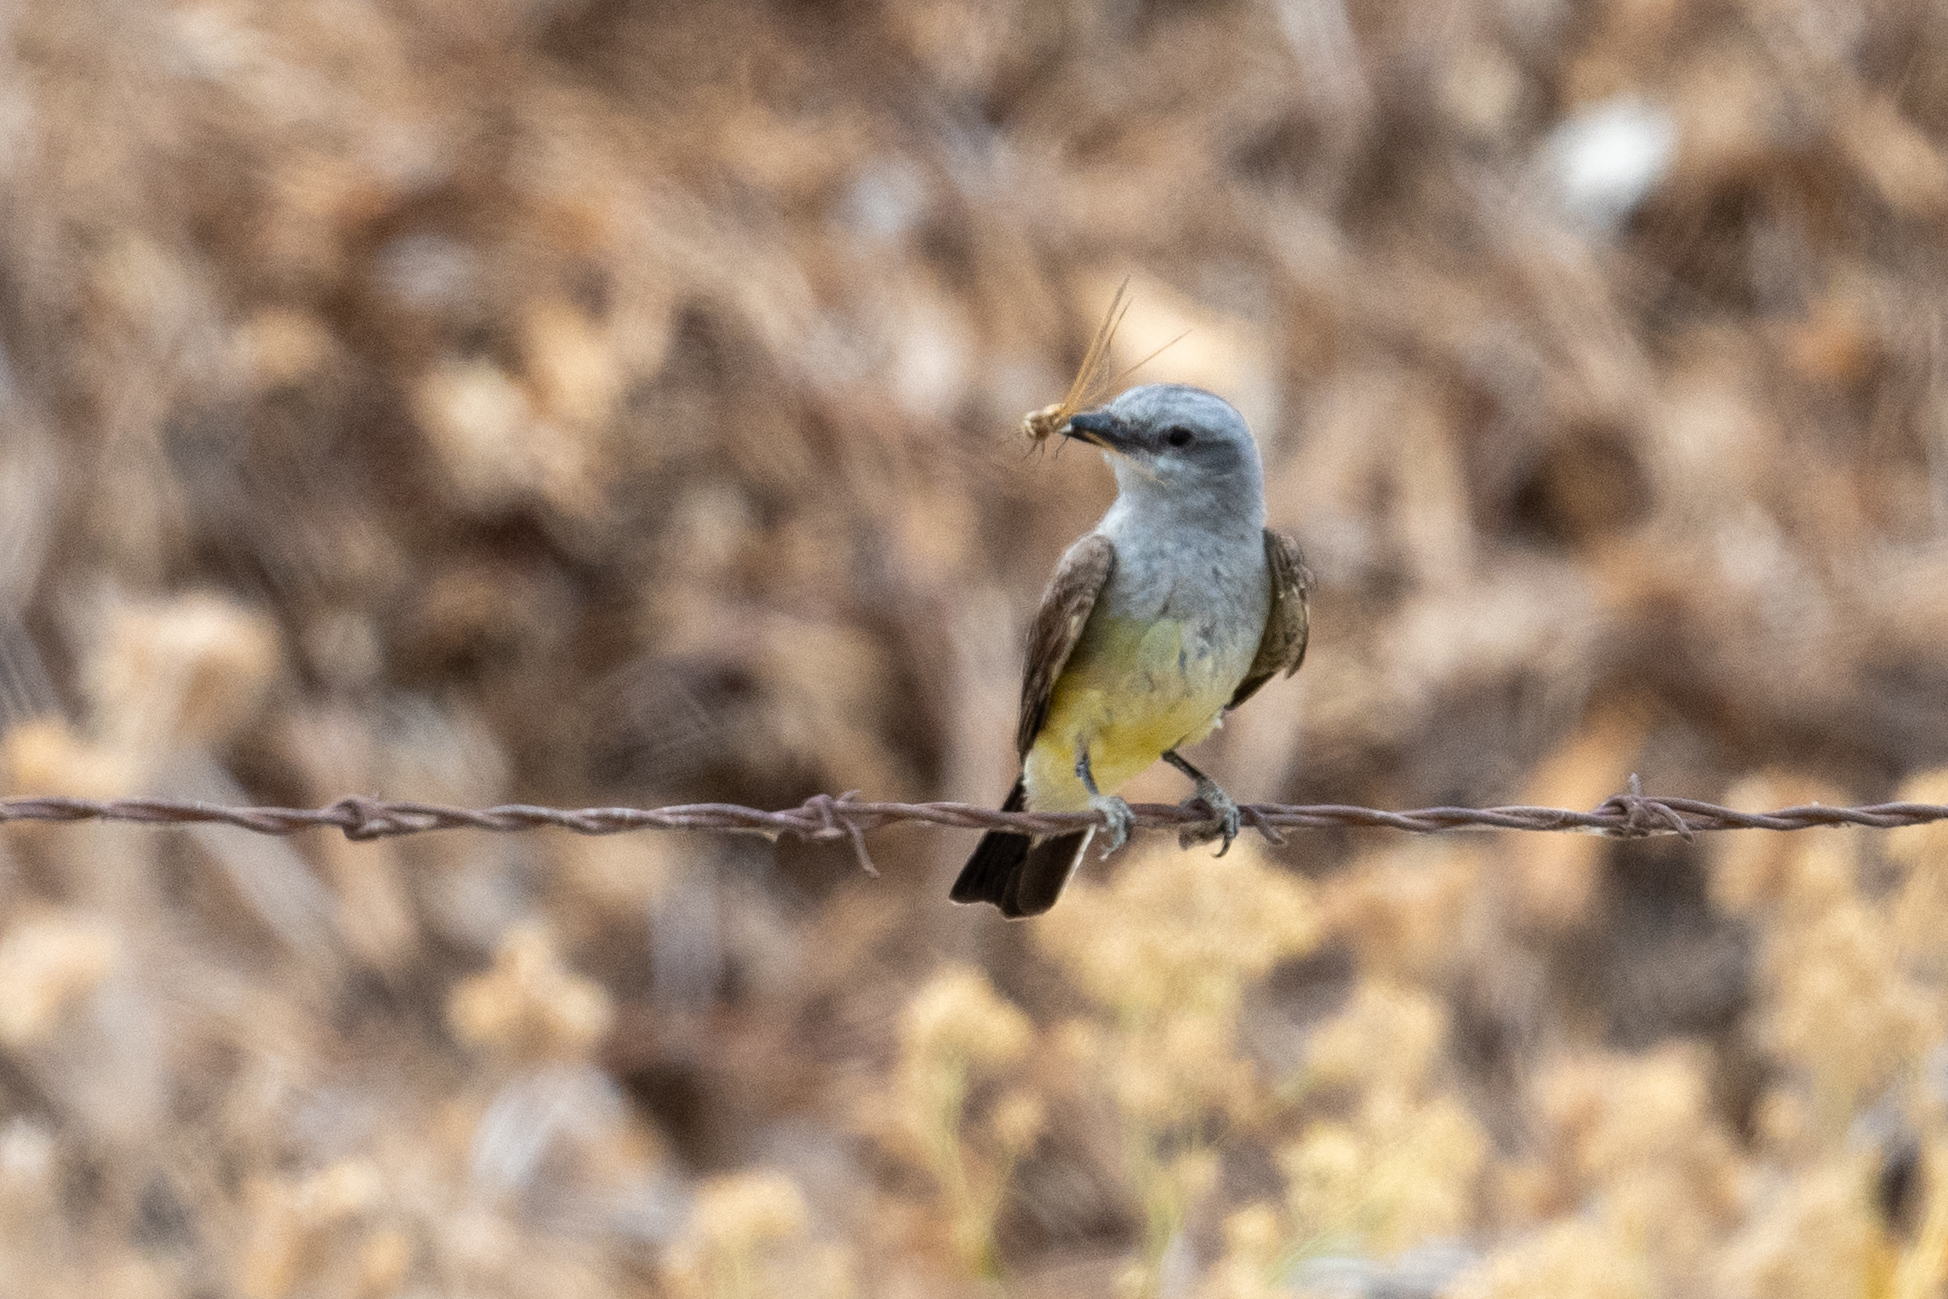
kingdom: Animalia
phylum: Chordata
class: Aves
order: Passeriformes
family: Tyrannidae
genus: Tyrannus
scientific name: Tyrannus verticalis
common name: Western kingbird
